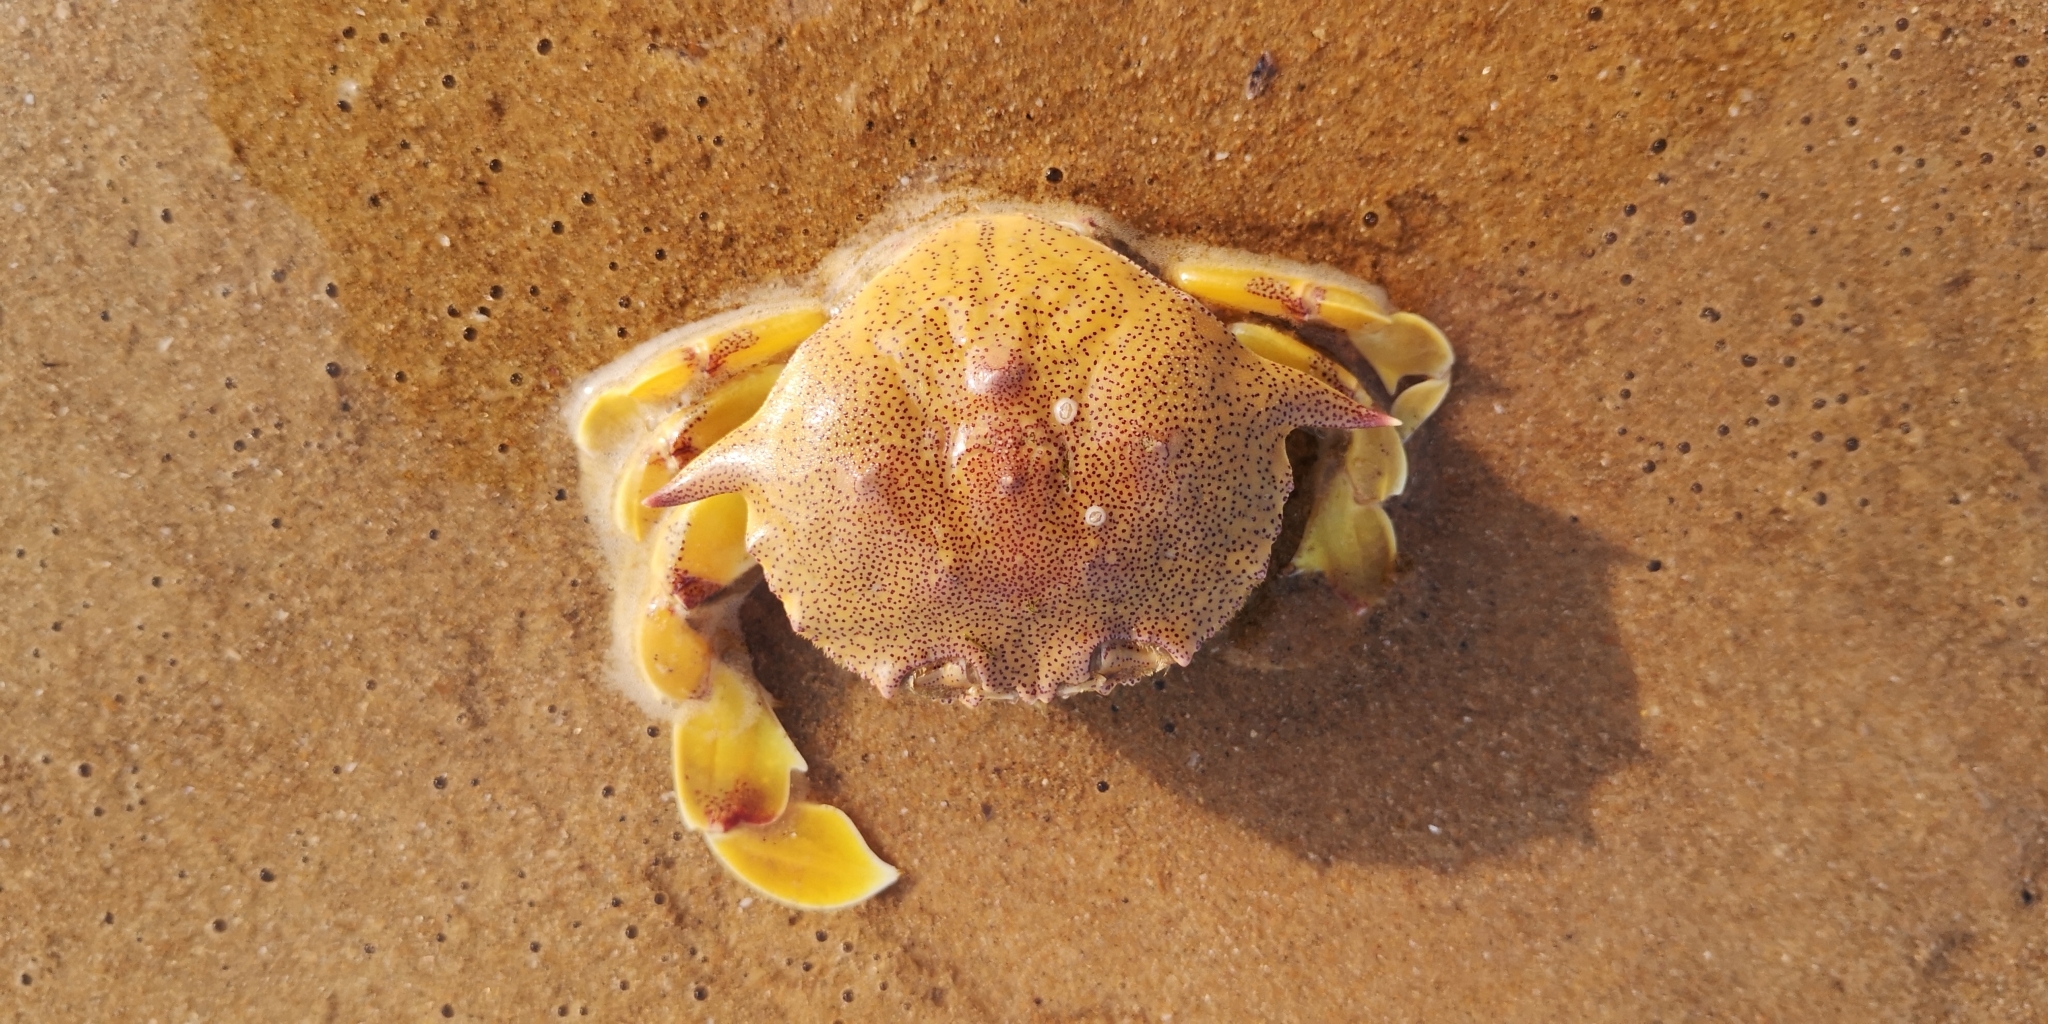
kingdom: Animalia
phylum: Arthropoda
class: Malacostraca
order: Decapoda
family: Matutidae
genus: Matuta
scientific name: Matuta victor
